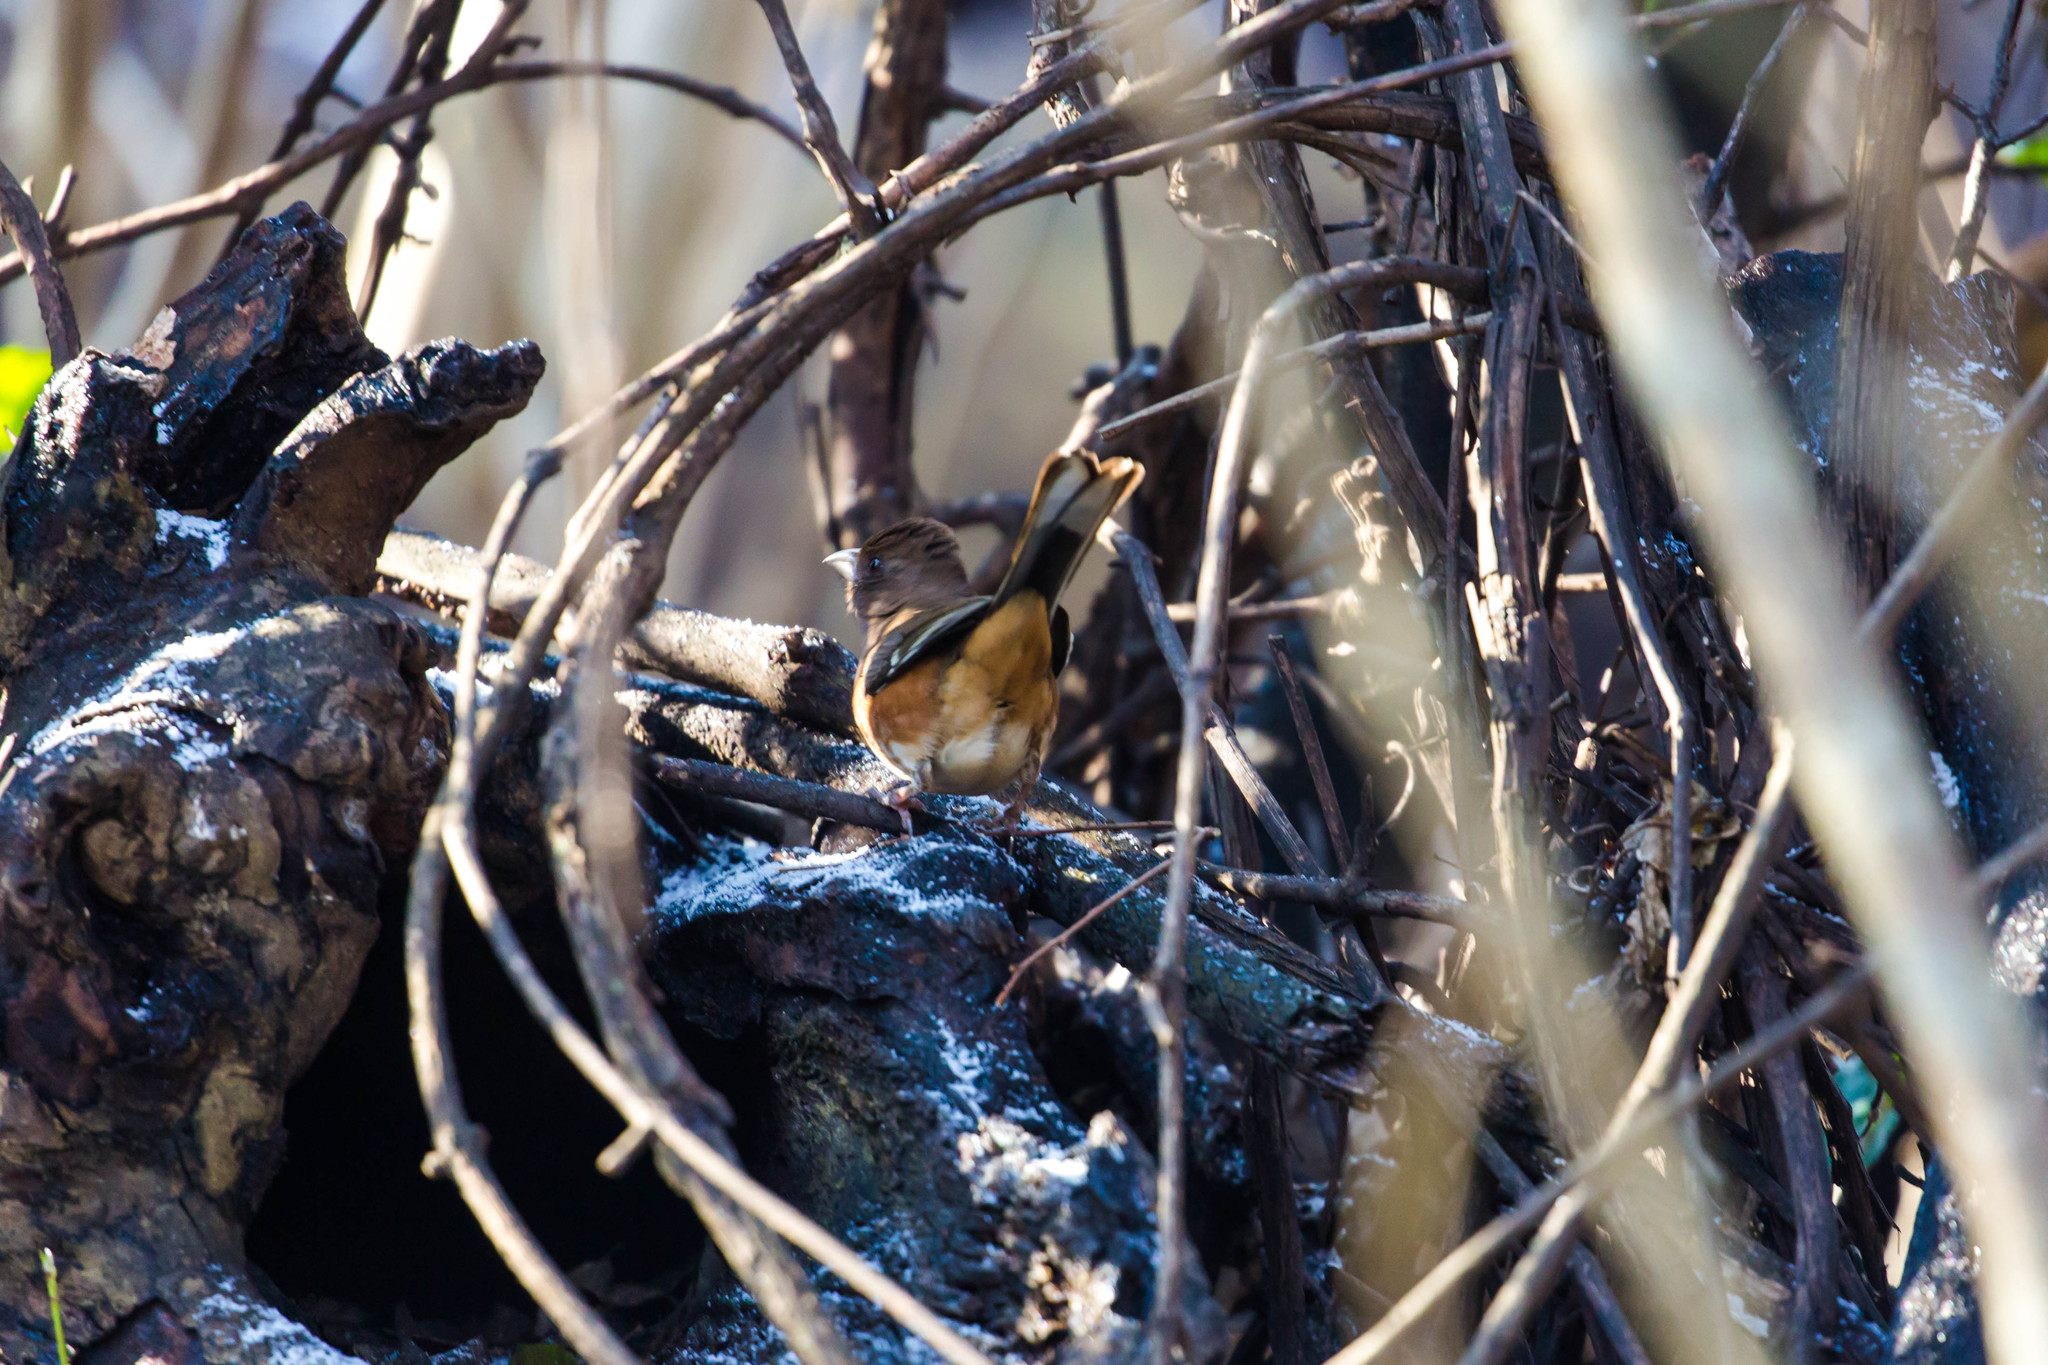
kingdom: Animalia
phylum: Chordata
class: Aves
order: Passeriformes
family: Passerellidae
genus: Pipilo
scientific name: Pipilo erythrophthalmus
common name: Eastern towhee
